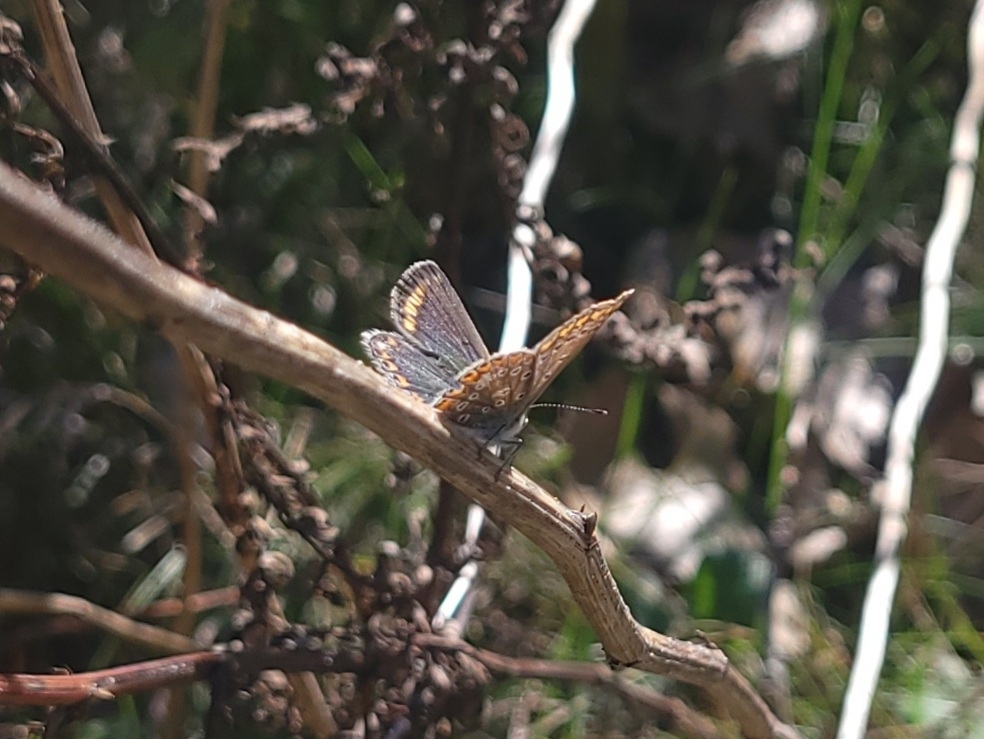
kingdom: Animalia
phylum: Arthropoda
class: Insecta
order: Lepidoptera
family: Lycaenidae
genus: Polyommatus
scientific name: Polyommatus icarus
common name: Common blue
